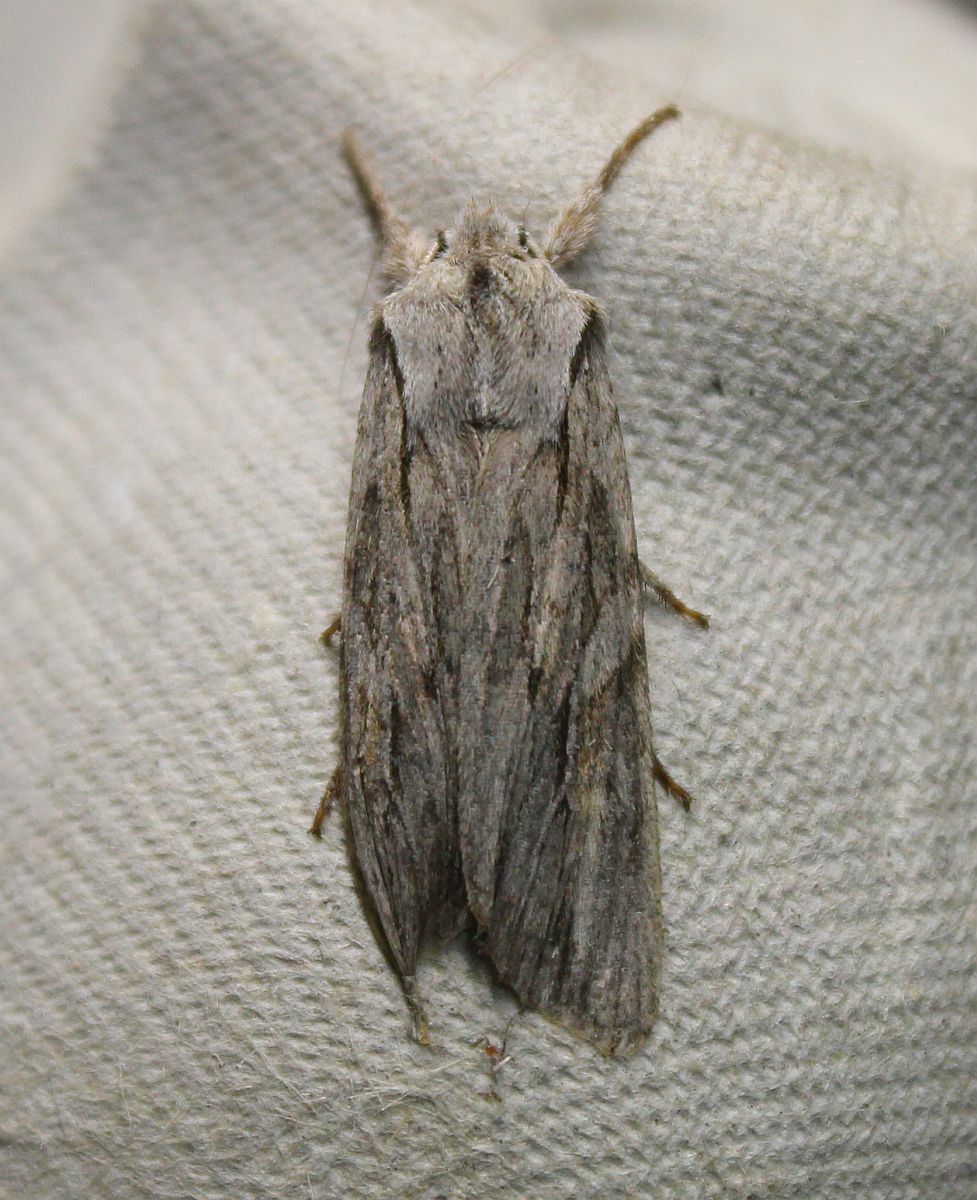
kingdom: Animalia
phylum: Arthropoda
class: Insecta
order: Lepidoptera
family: Noctuidae
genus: Lithophane
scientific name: Lithophane leautieri
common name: Blair's shoulder-knot
